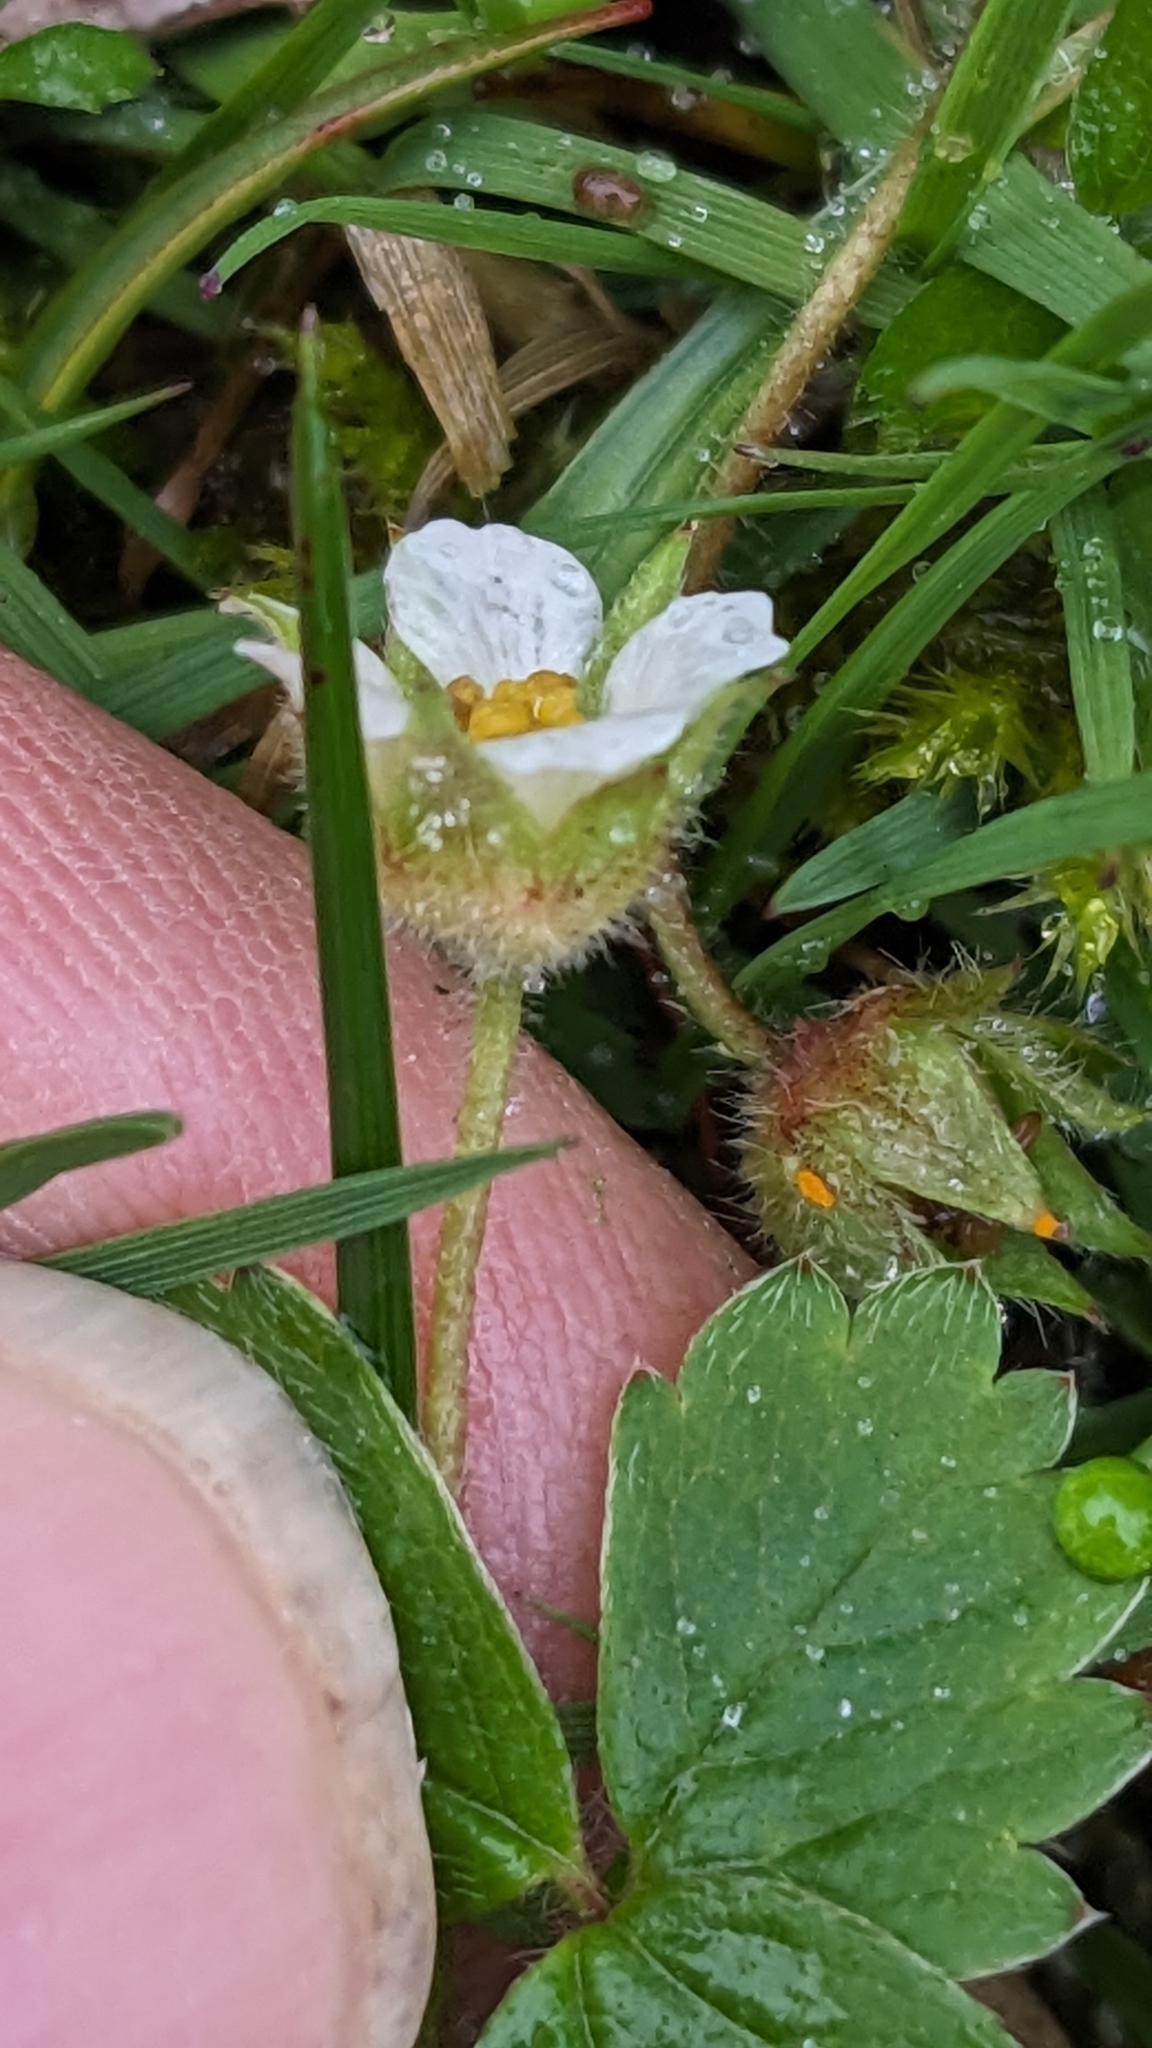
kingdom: Plantae
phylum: Tracheophyta
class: Magnoliopsida
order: Rosales
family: Rosaceae
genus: Potentilla
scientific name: Potentilla sterilis
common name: Barren strawberry
